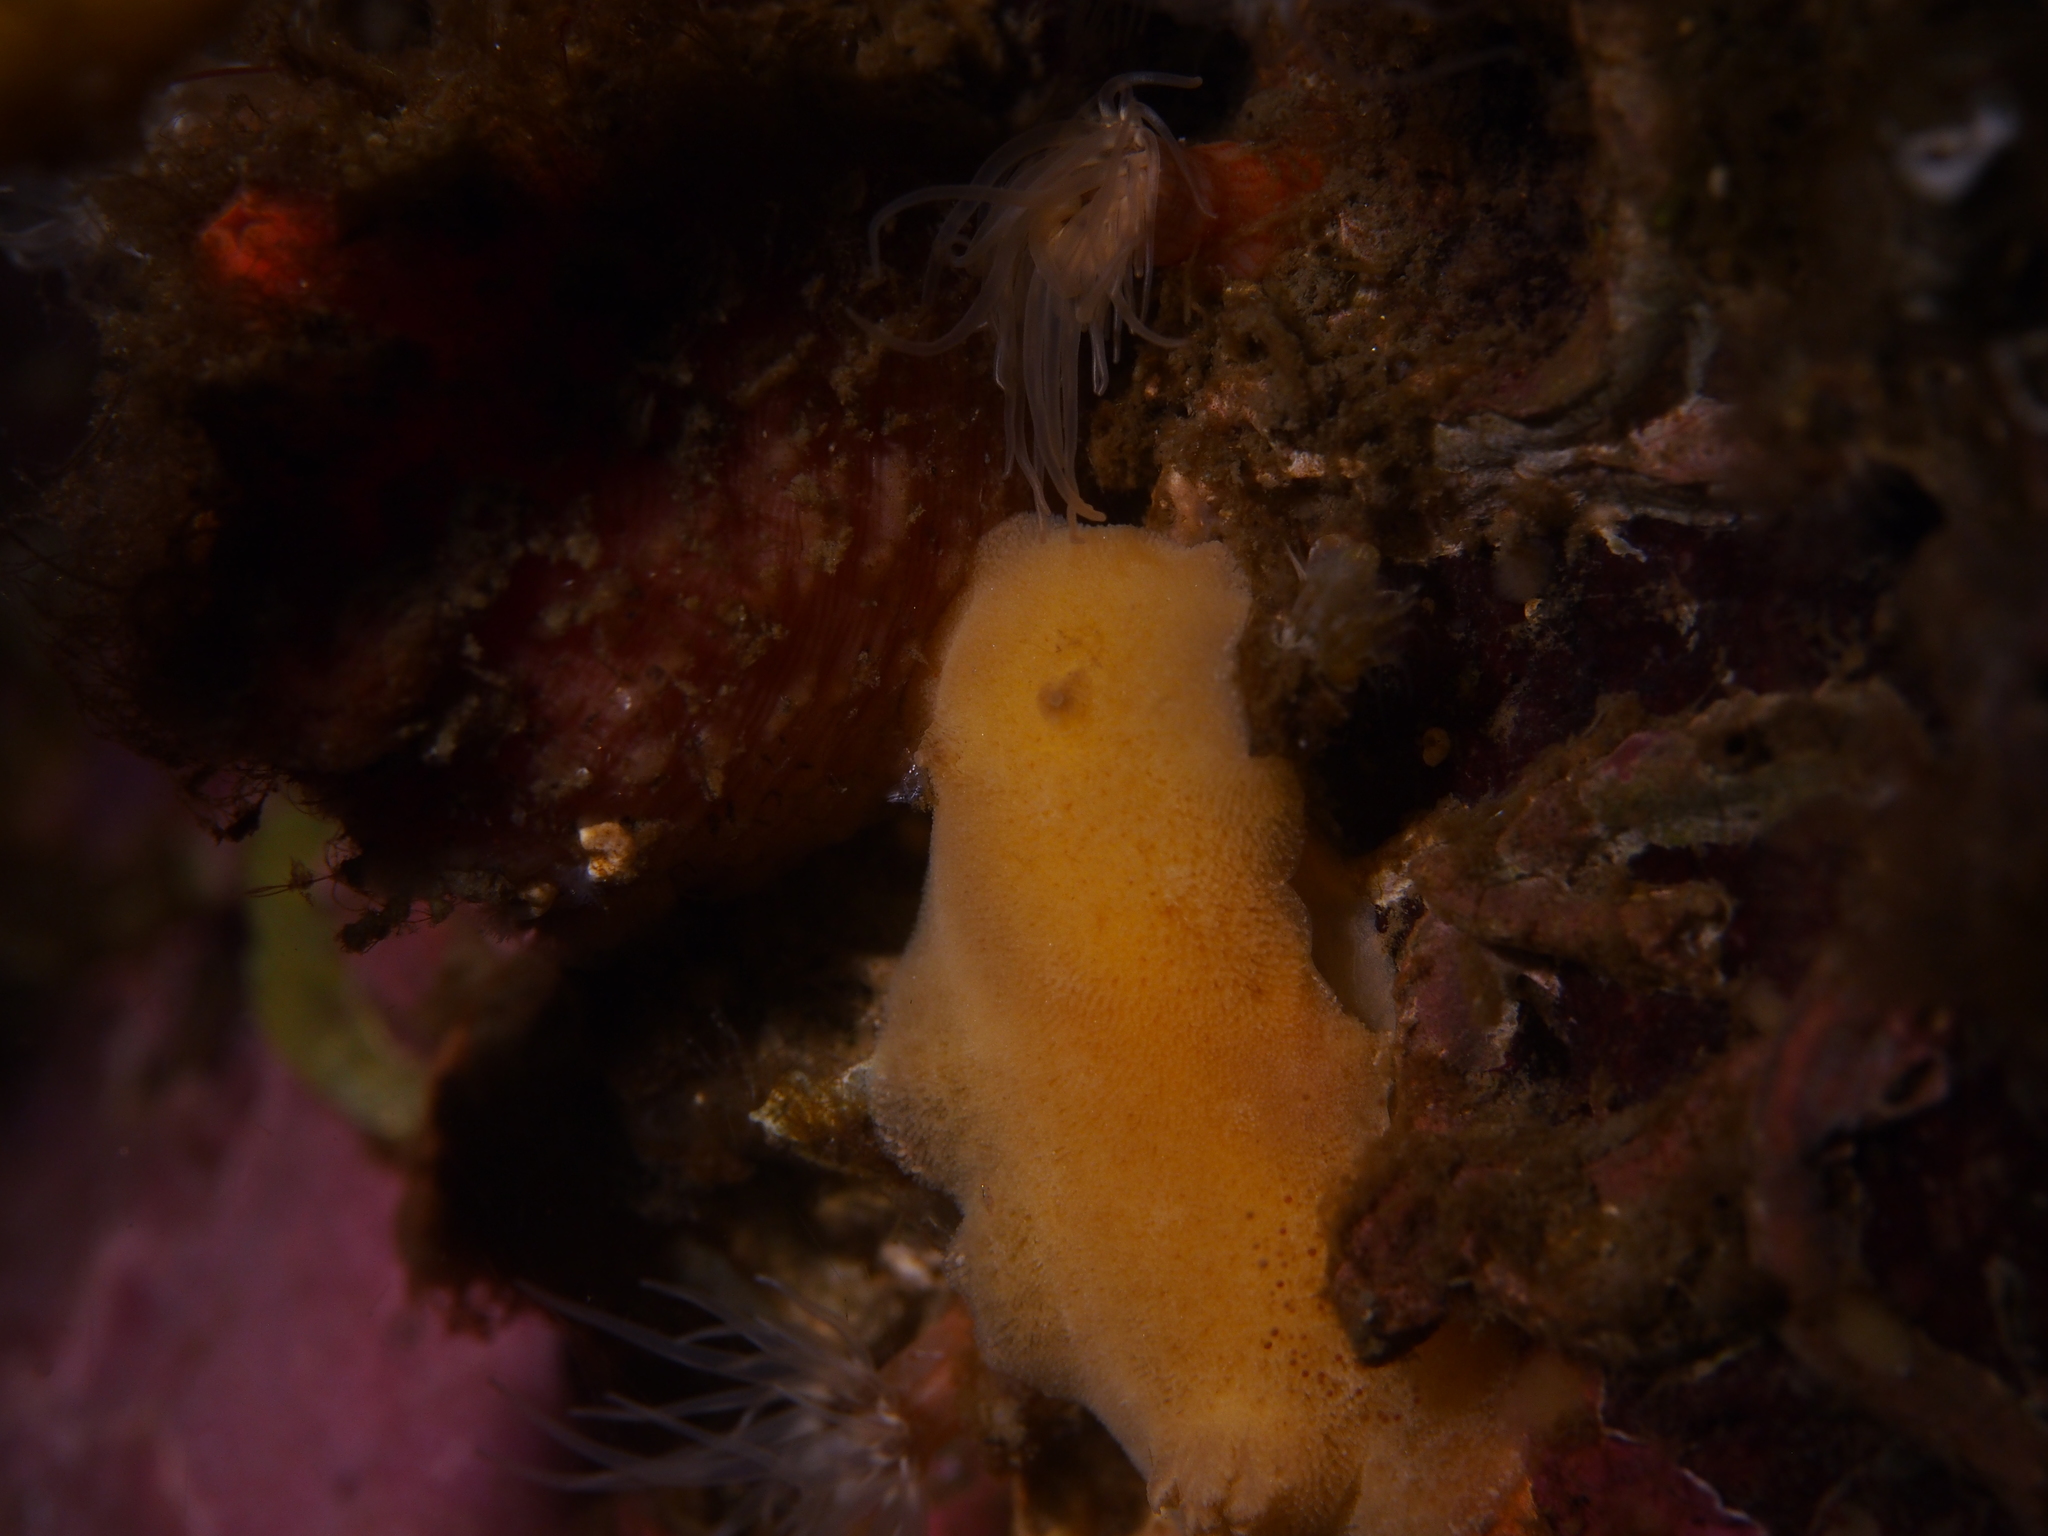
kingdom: Animalia
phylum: Mollusca
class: Gastropoda
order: Nudibranchia
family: Discodorididae
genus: Jorunna
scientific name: Jorunna tomentosa
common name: Grey sea slug
